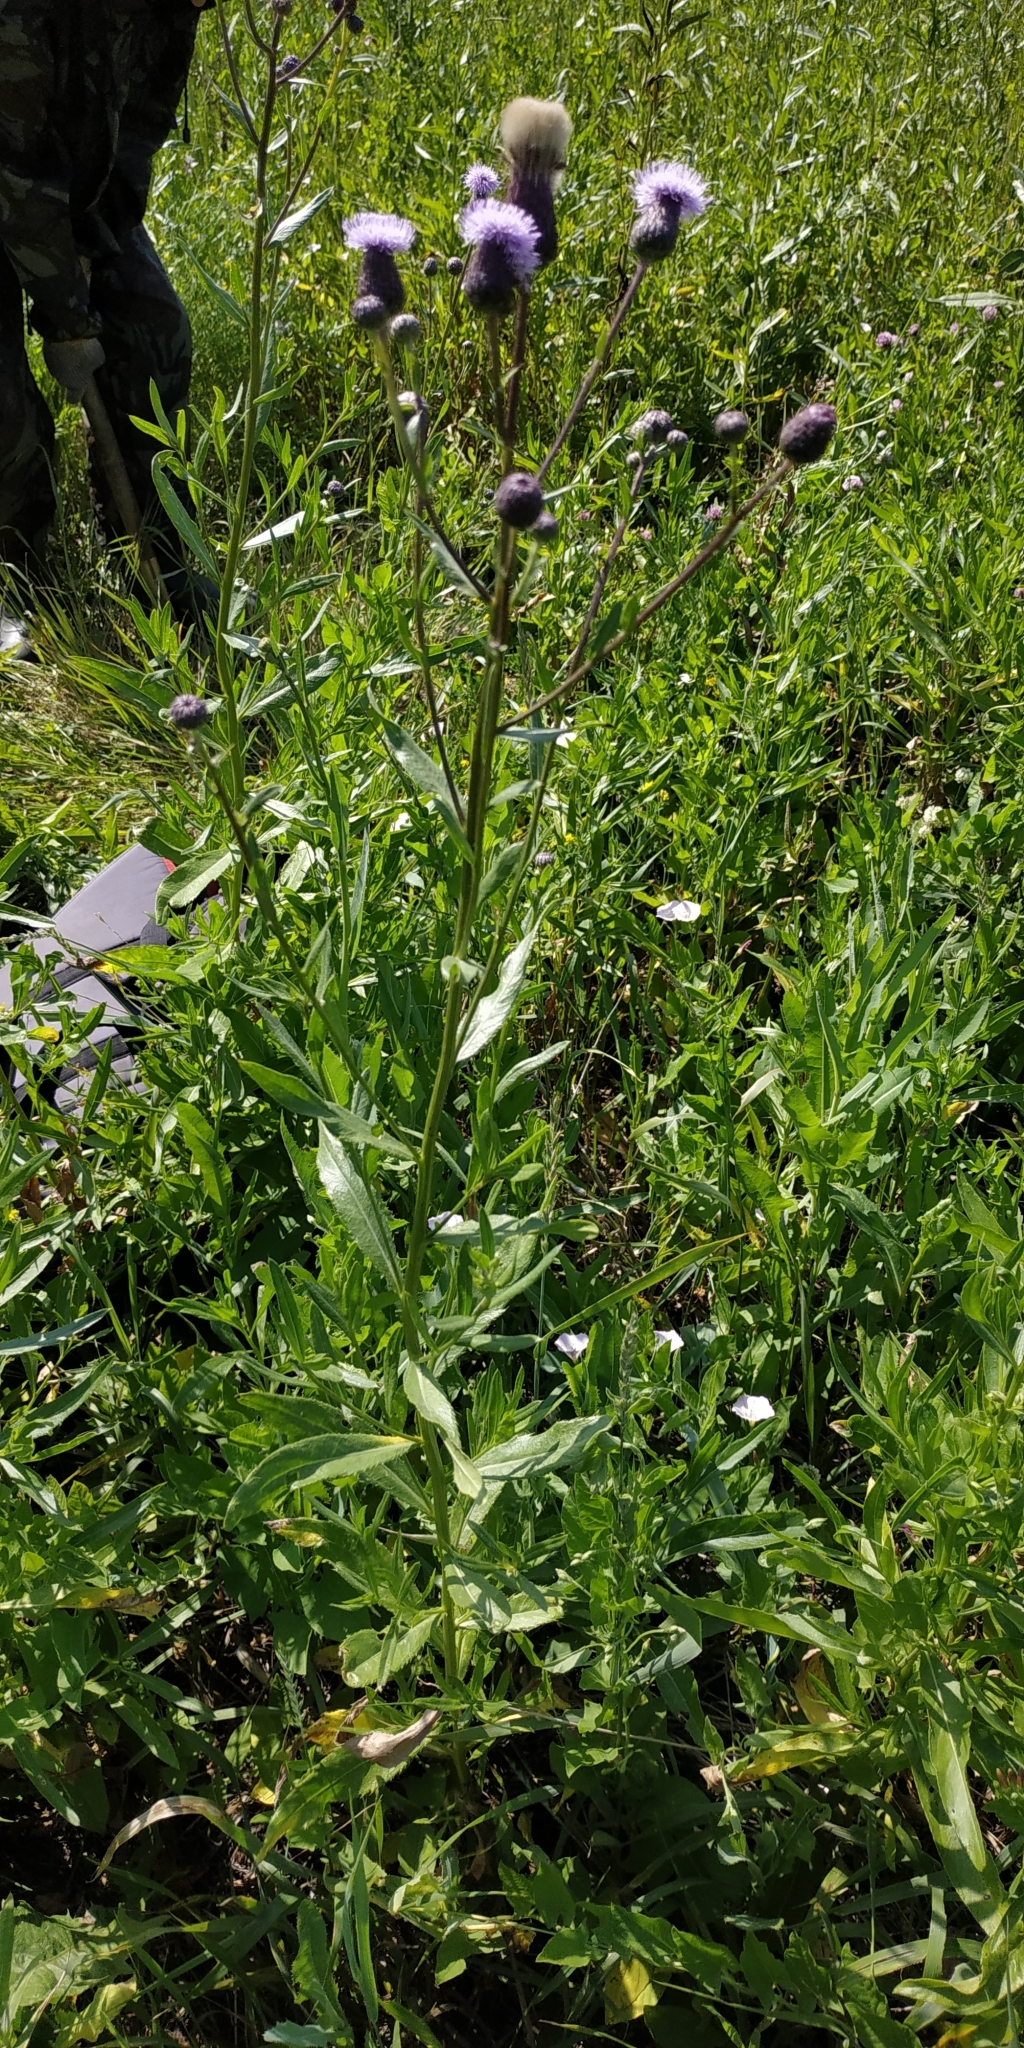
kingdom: Plantae
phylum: Tracheophyta
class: Magnoliopsida
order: Asterales
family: Asteraceae
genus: Cirsium
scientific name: Cirsium arvense
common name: Creeping thistle
